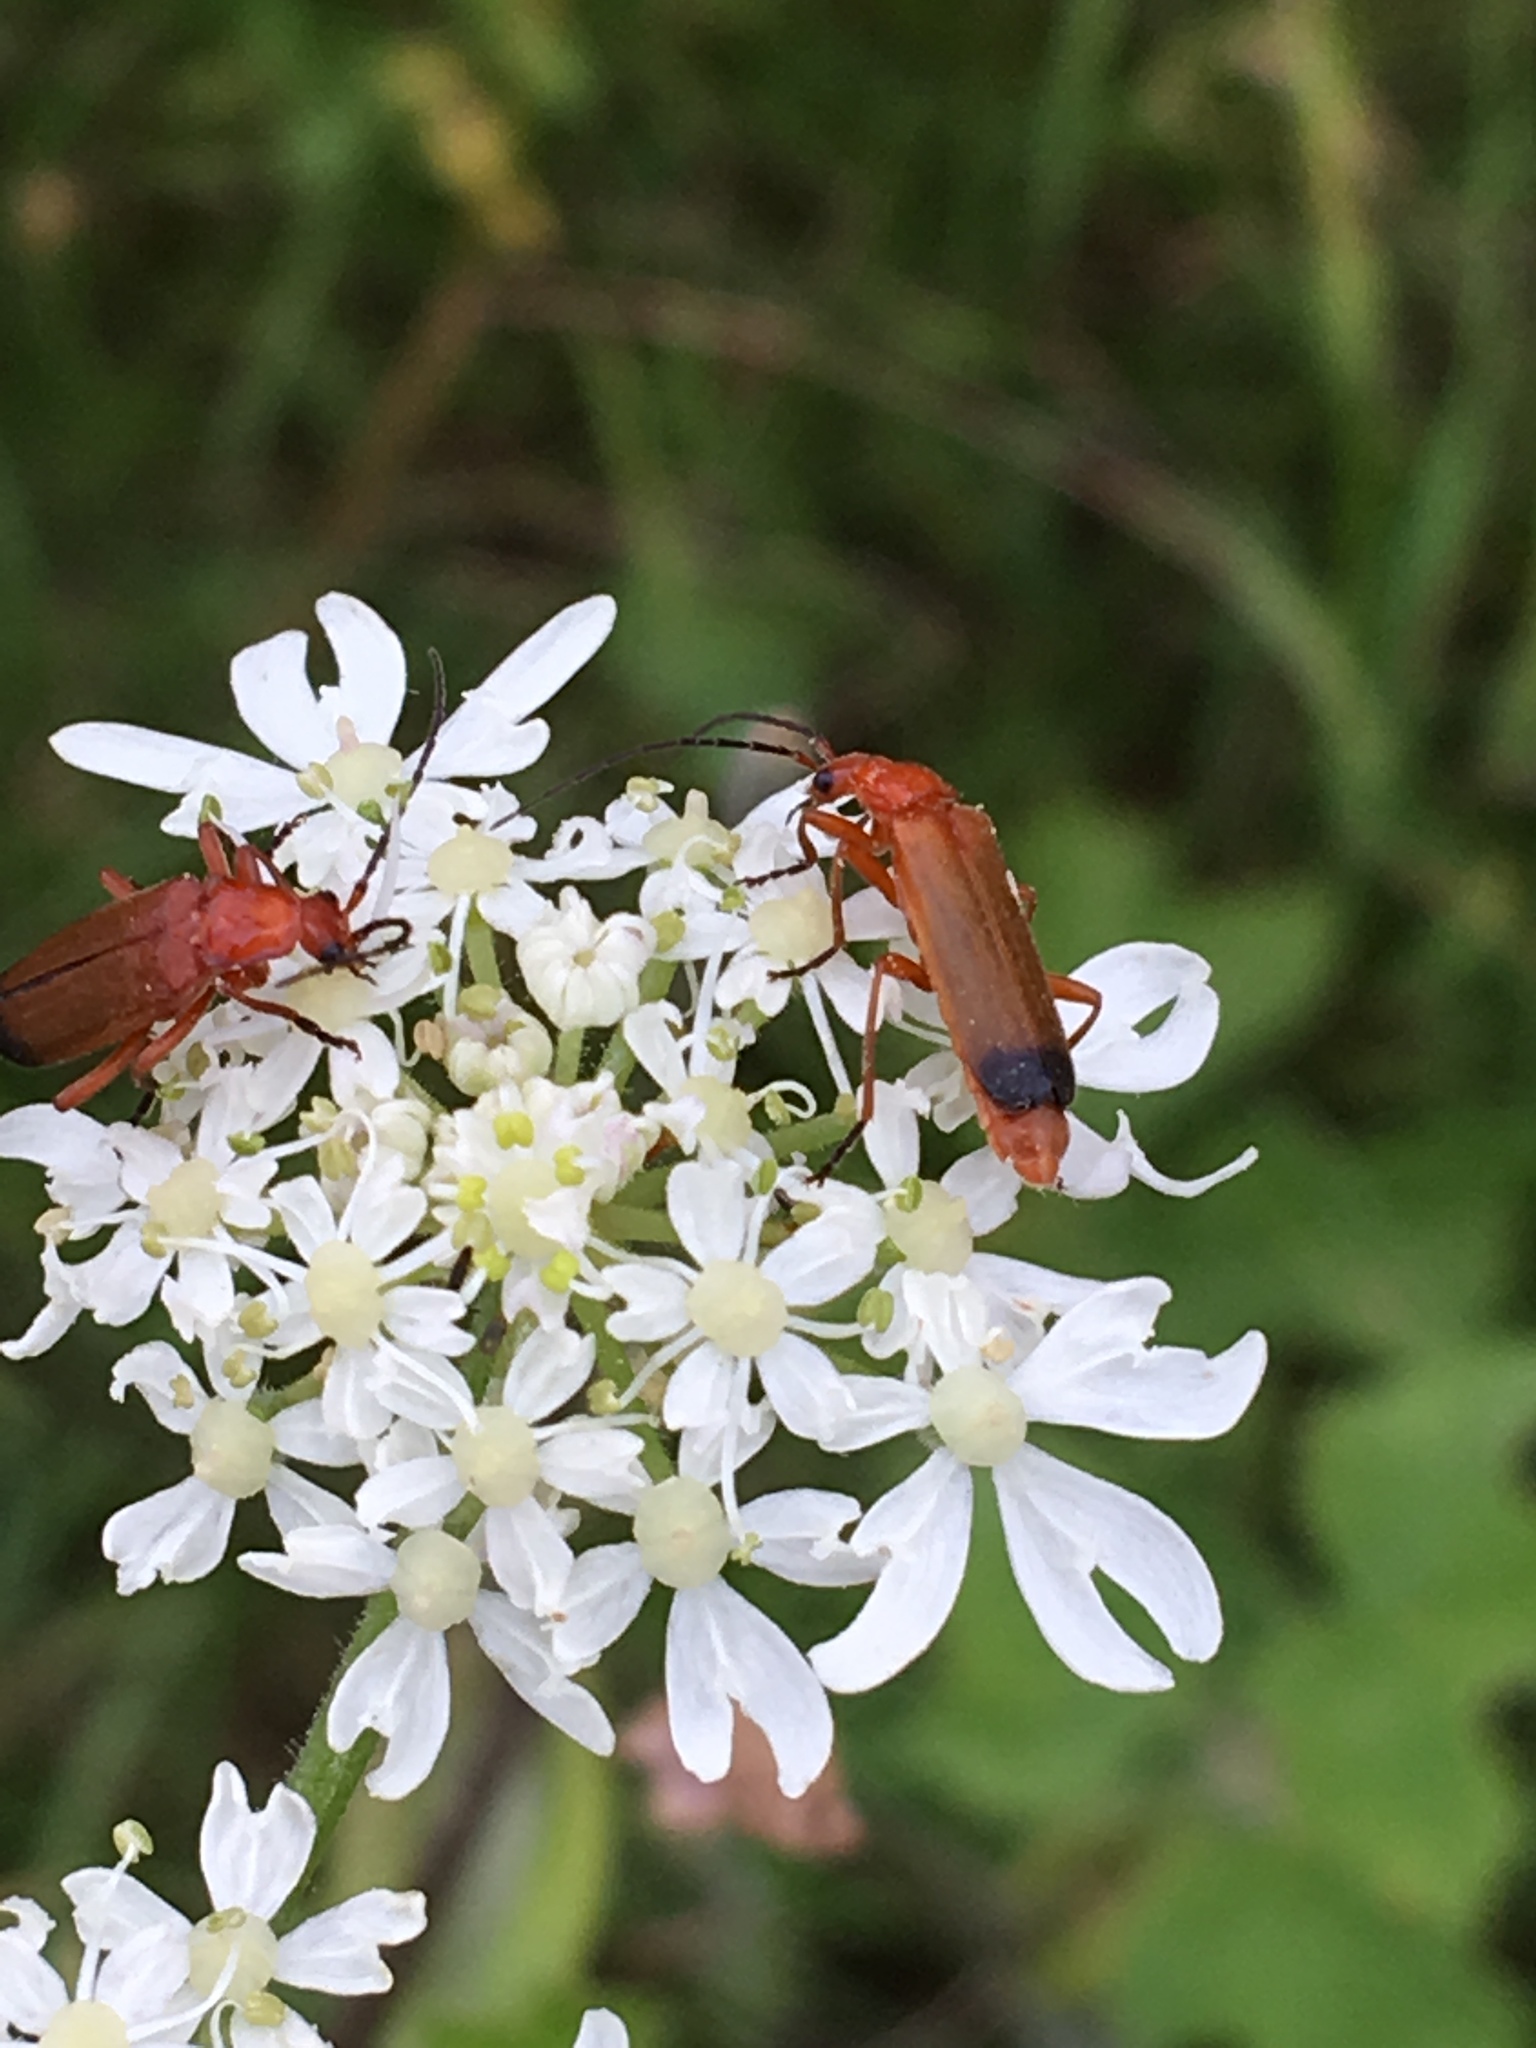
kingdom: Animalia
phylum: Arthropoda
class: Insecta
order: Coleoptera
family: Cantharidae
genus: Rhagonycha
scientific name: Rhagonycha fulva
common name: Common red soldier beetle
